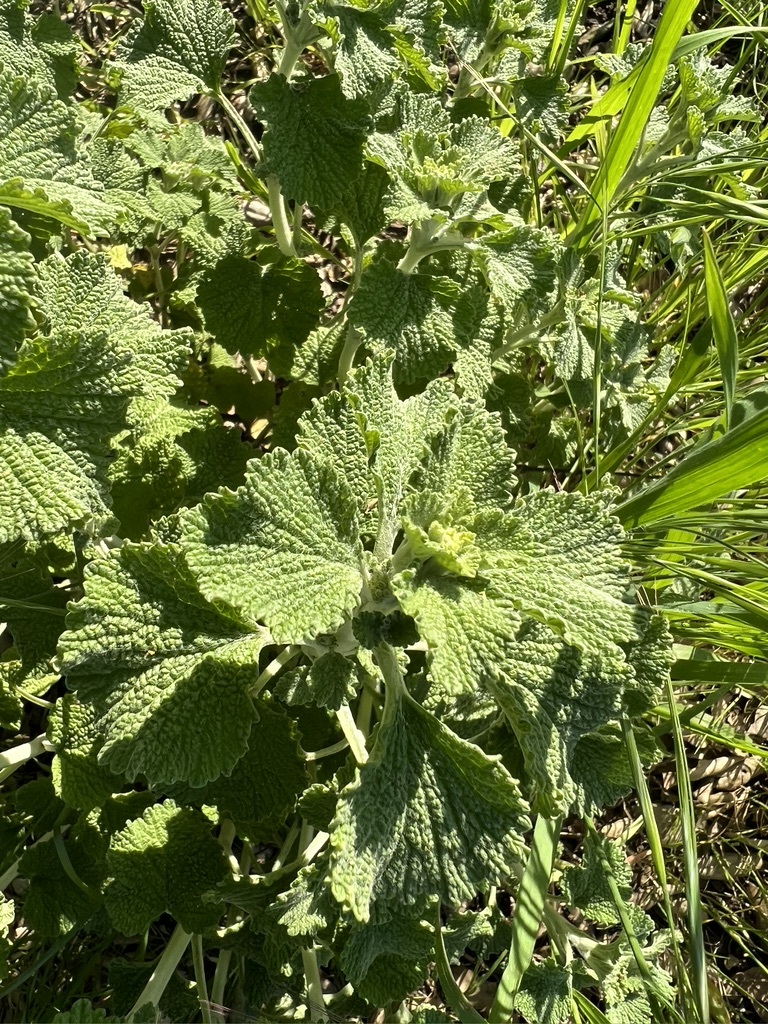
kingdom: Plantae
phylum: Tracheophyta
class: Magnoliopsida
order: Lamiales
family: Lamiaceae
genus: Marrubium
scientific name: Marrubium vulgare
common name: Horehound
